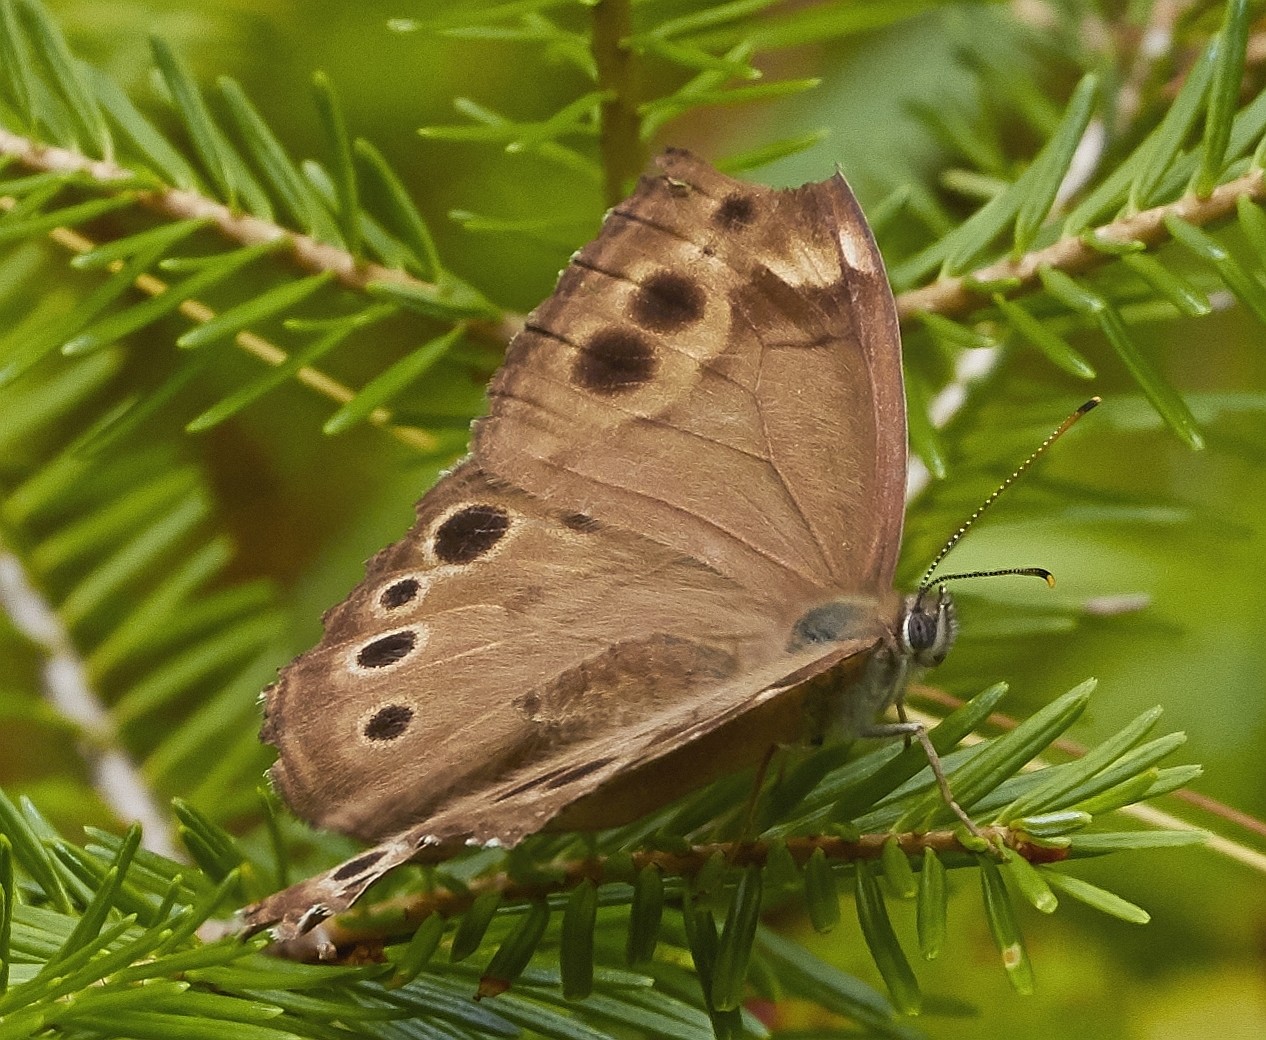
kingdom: Animalia
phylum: Arthropoda
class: Insecta
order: Lepidoptera
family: Nymphalidae
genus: Lethe
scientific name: Lethe anthedon
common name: Northern pearly-eye
